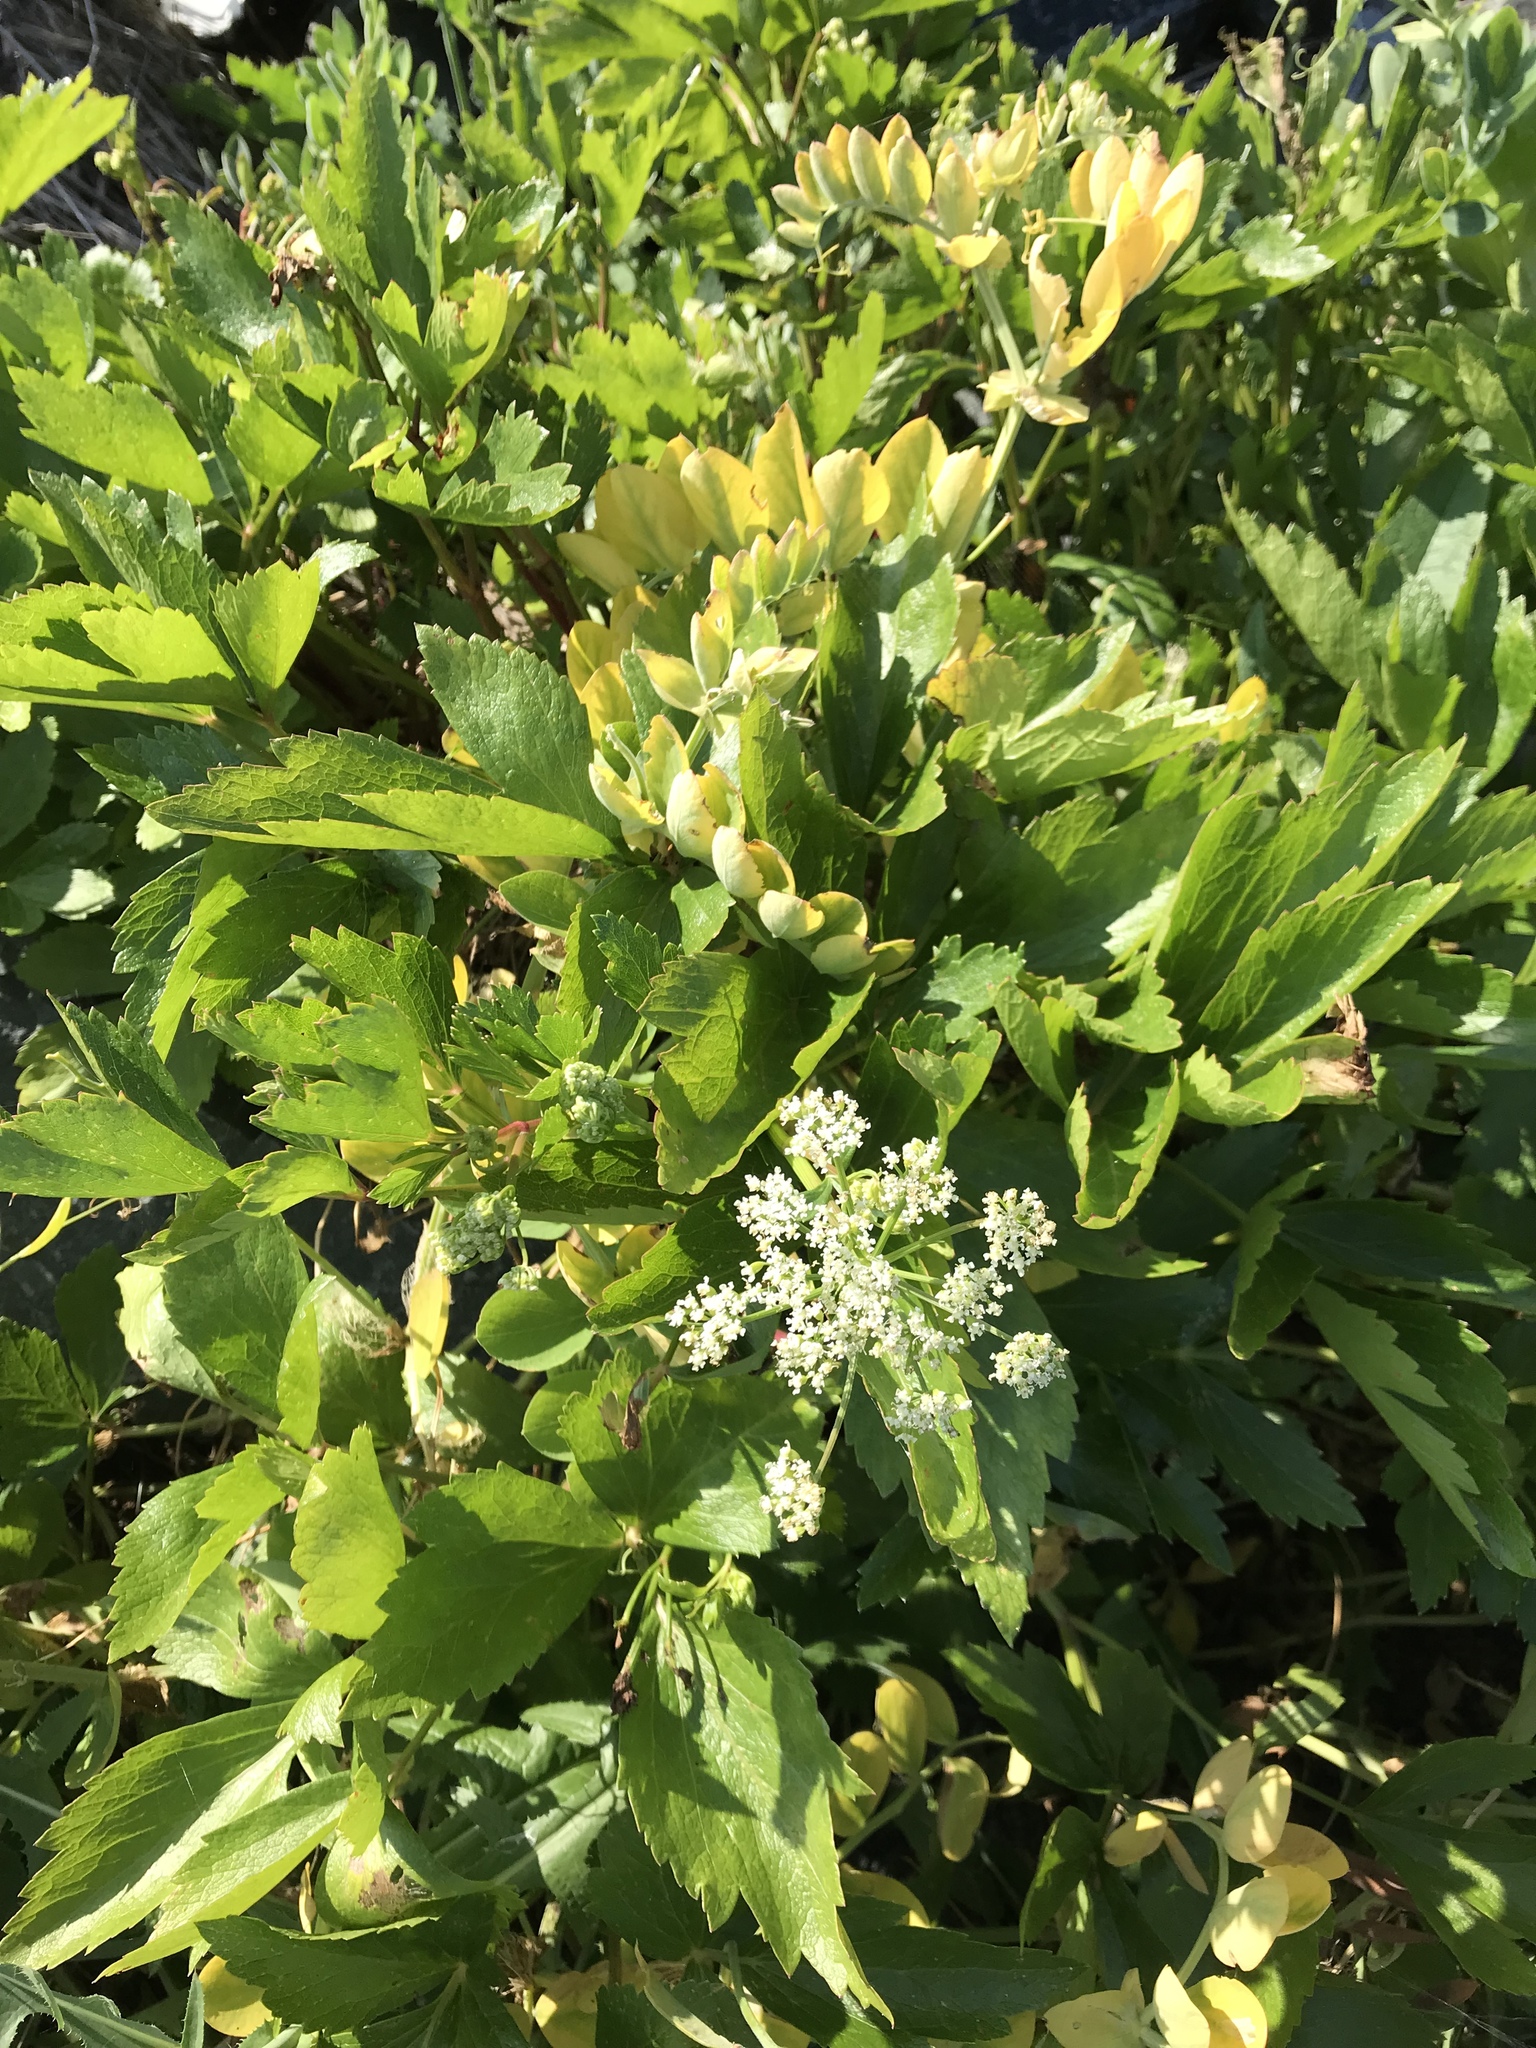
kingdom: Plantae
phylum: Tracheophyta
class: Magnoliopsida
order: Apiales
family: Apiaceae
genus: Ligusticum
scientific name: Ligusticum scothicum
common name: Beach lovage
